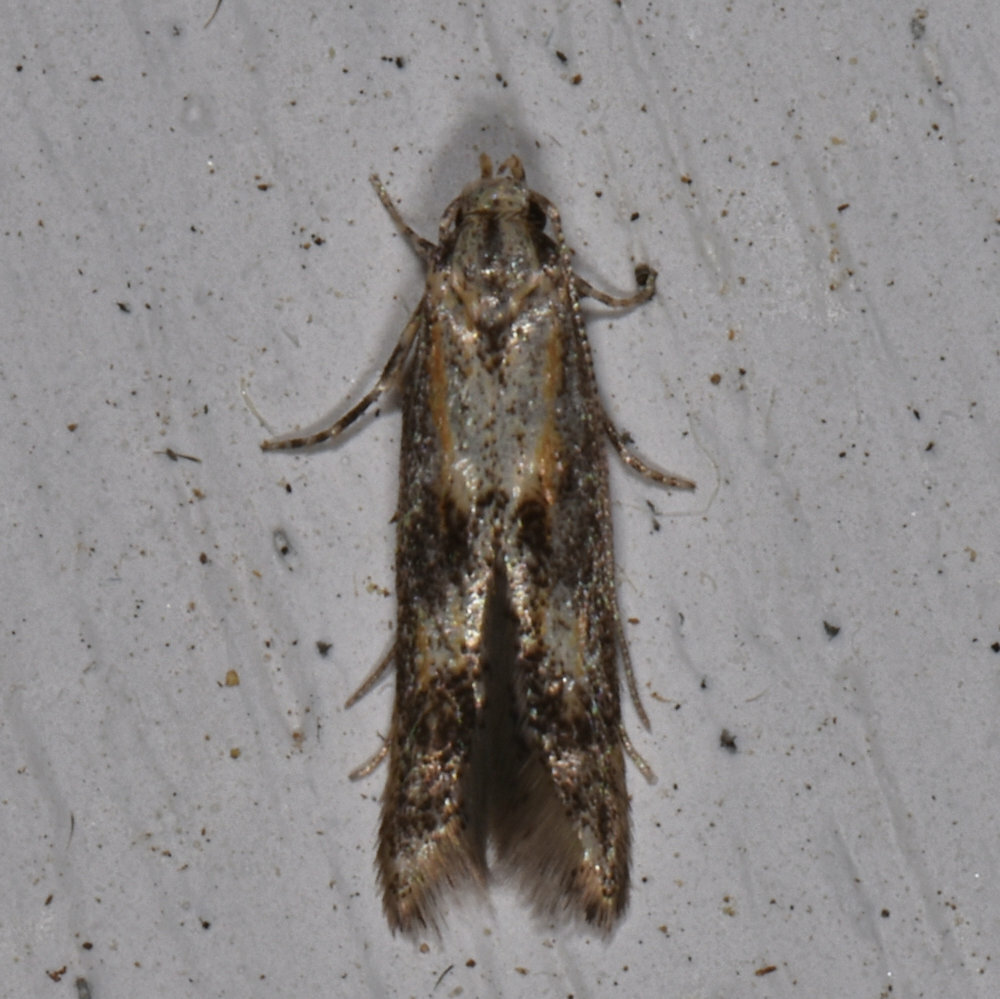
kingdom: Animalia
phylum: Arthropoda
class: Insecta
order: Lepidoptera
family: Elachistidae
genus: Blastodacna
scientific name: Blastodacna atra
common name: Apple pith moth
